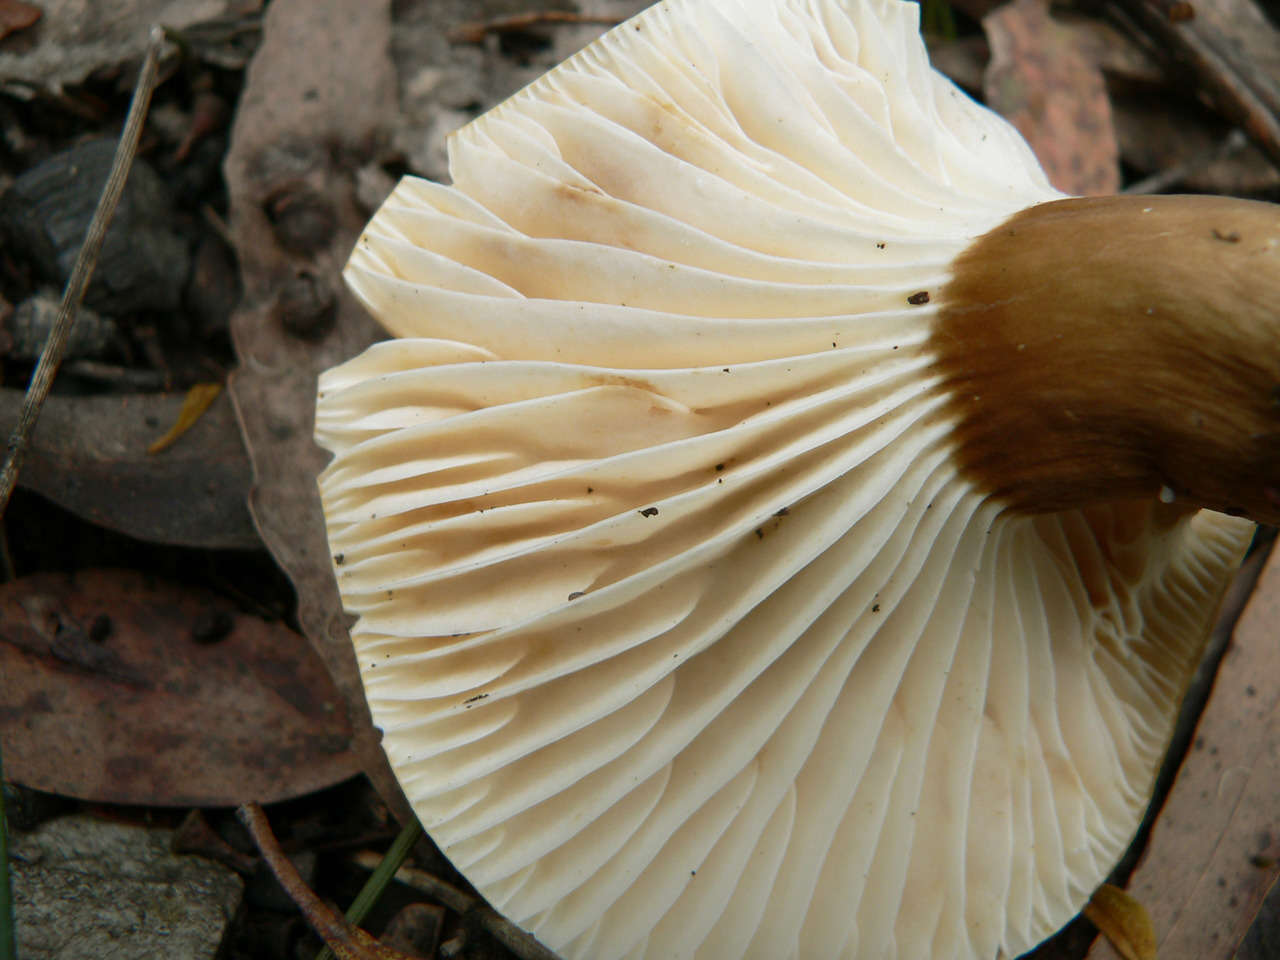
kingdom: Fungi
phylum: Basidiomycota
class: Agaricomycetes
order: Russulales
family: Russulaceae
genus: Lactifluus
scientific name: Lactifluus wirrabara
